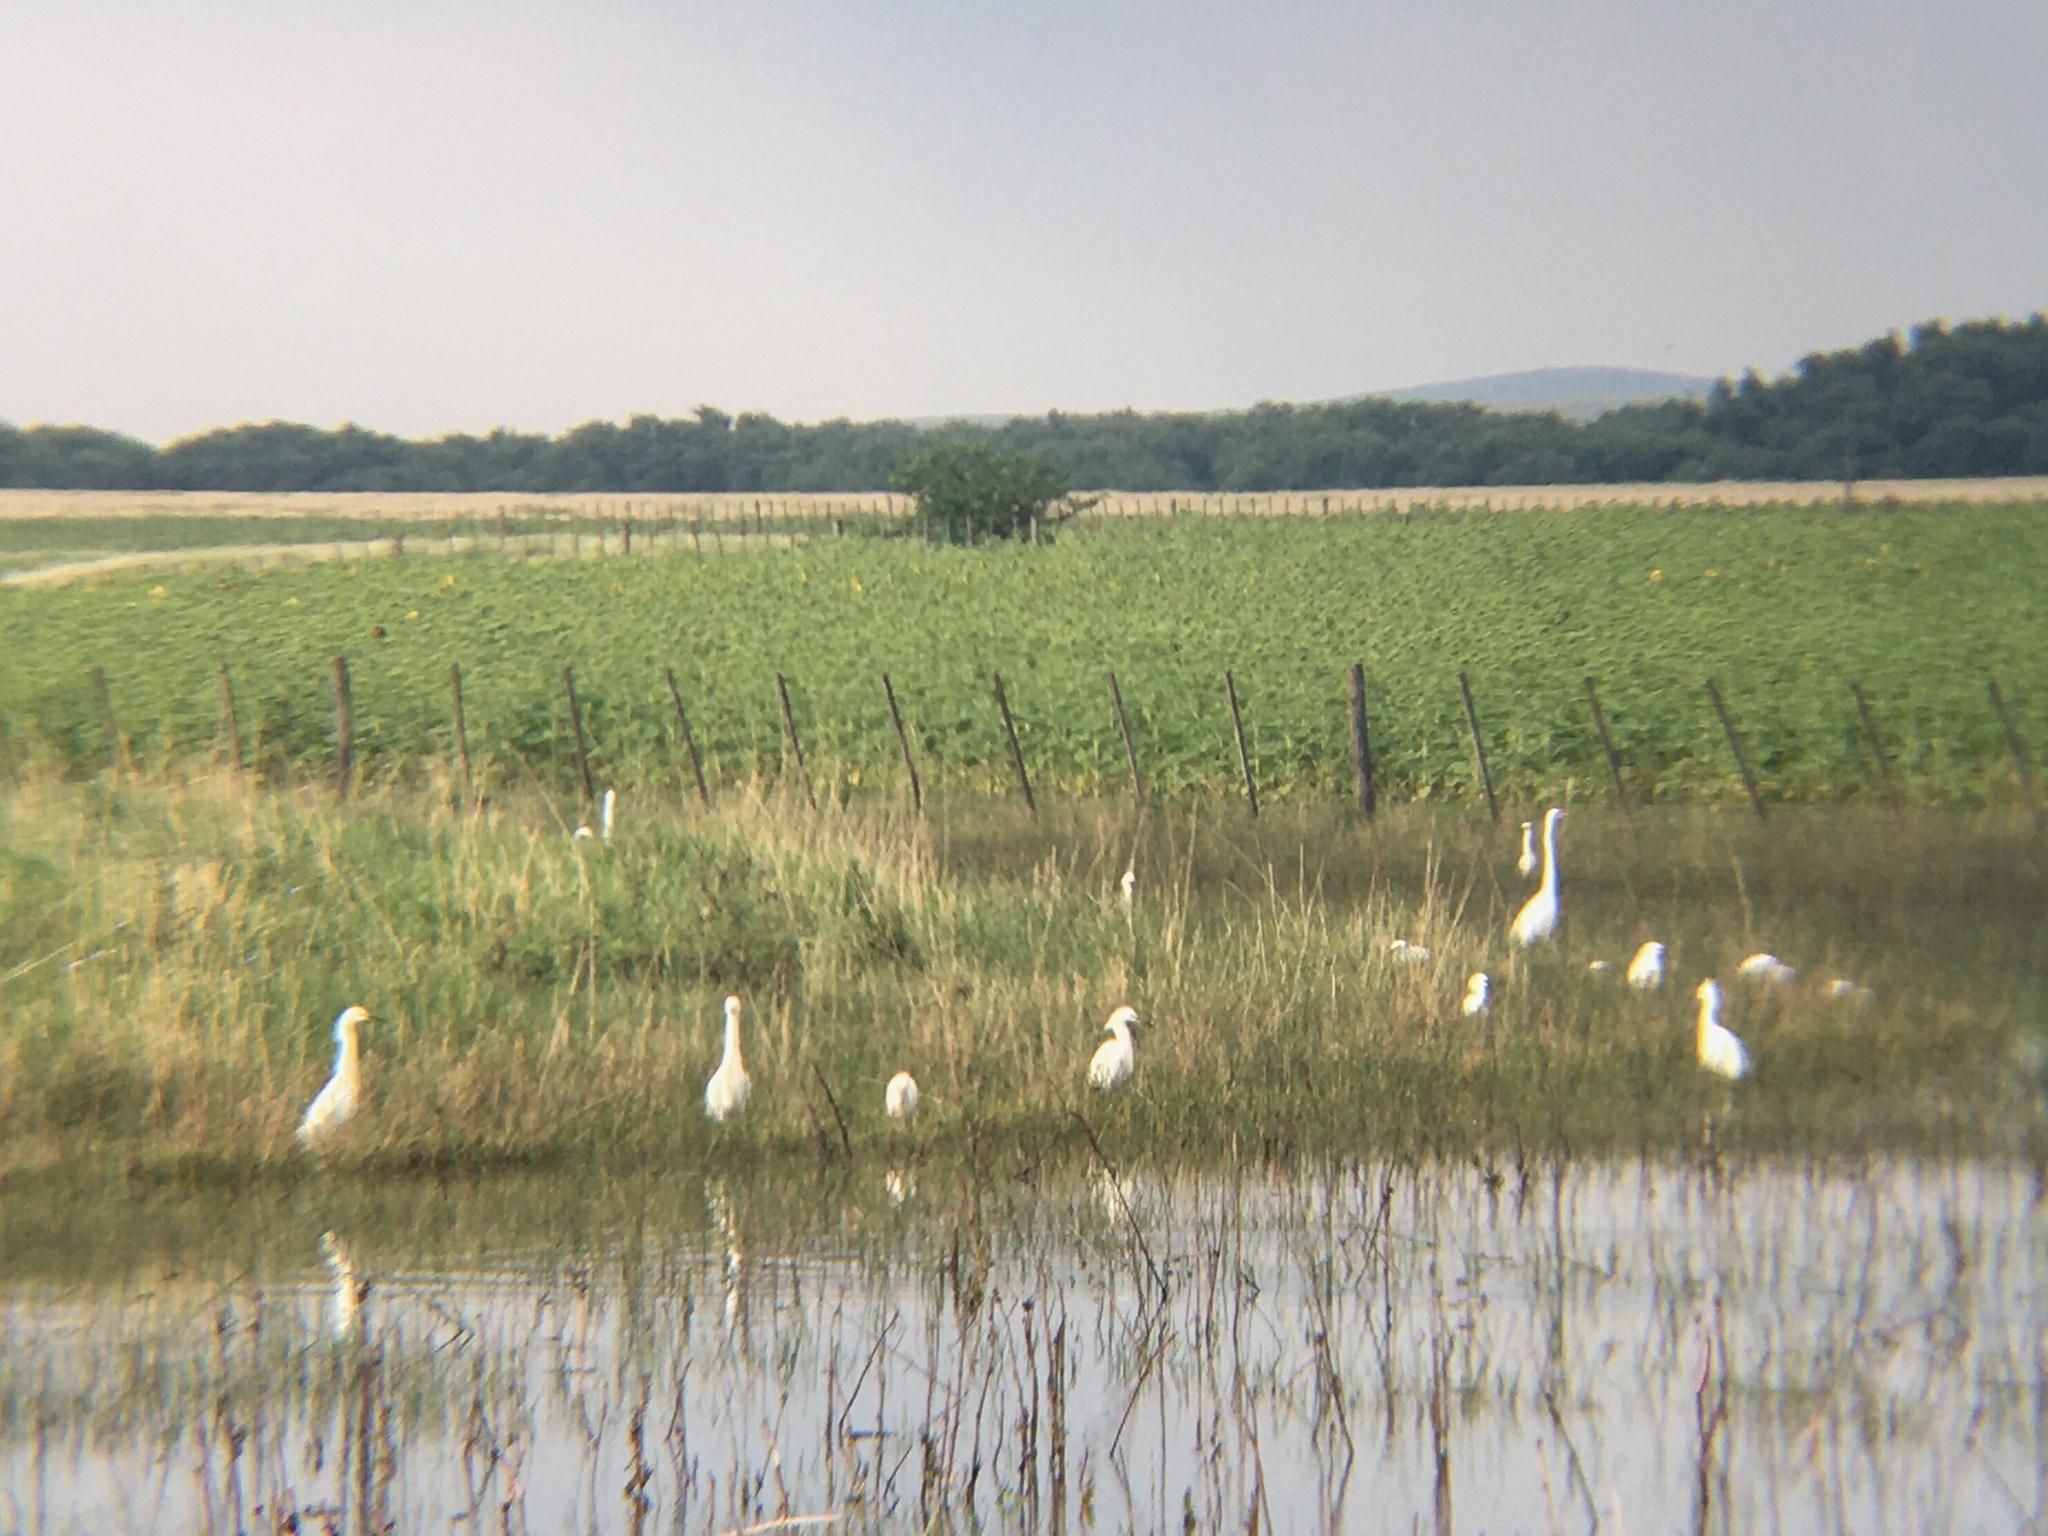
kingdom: Animalia
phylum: Chordata
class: Aves
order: Pelecaniformes
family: Ardeidae
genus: Egretta
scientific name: Egretta thula
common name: Snowy egret
